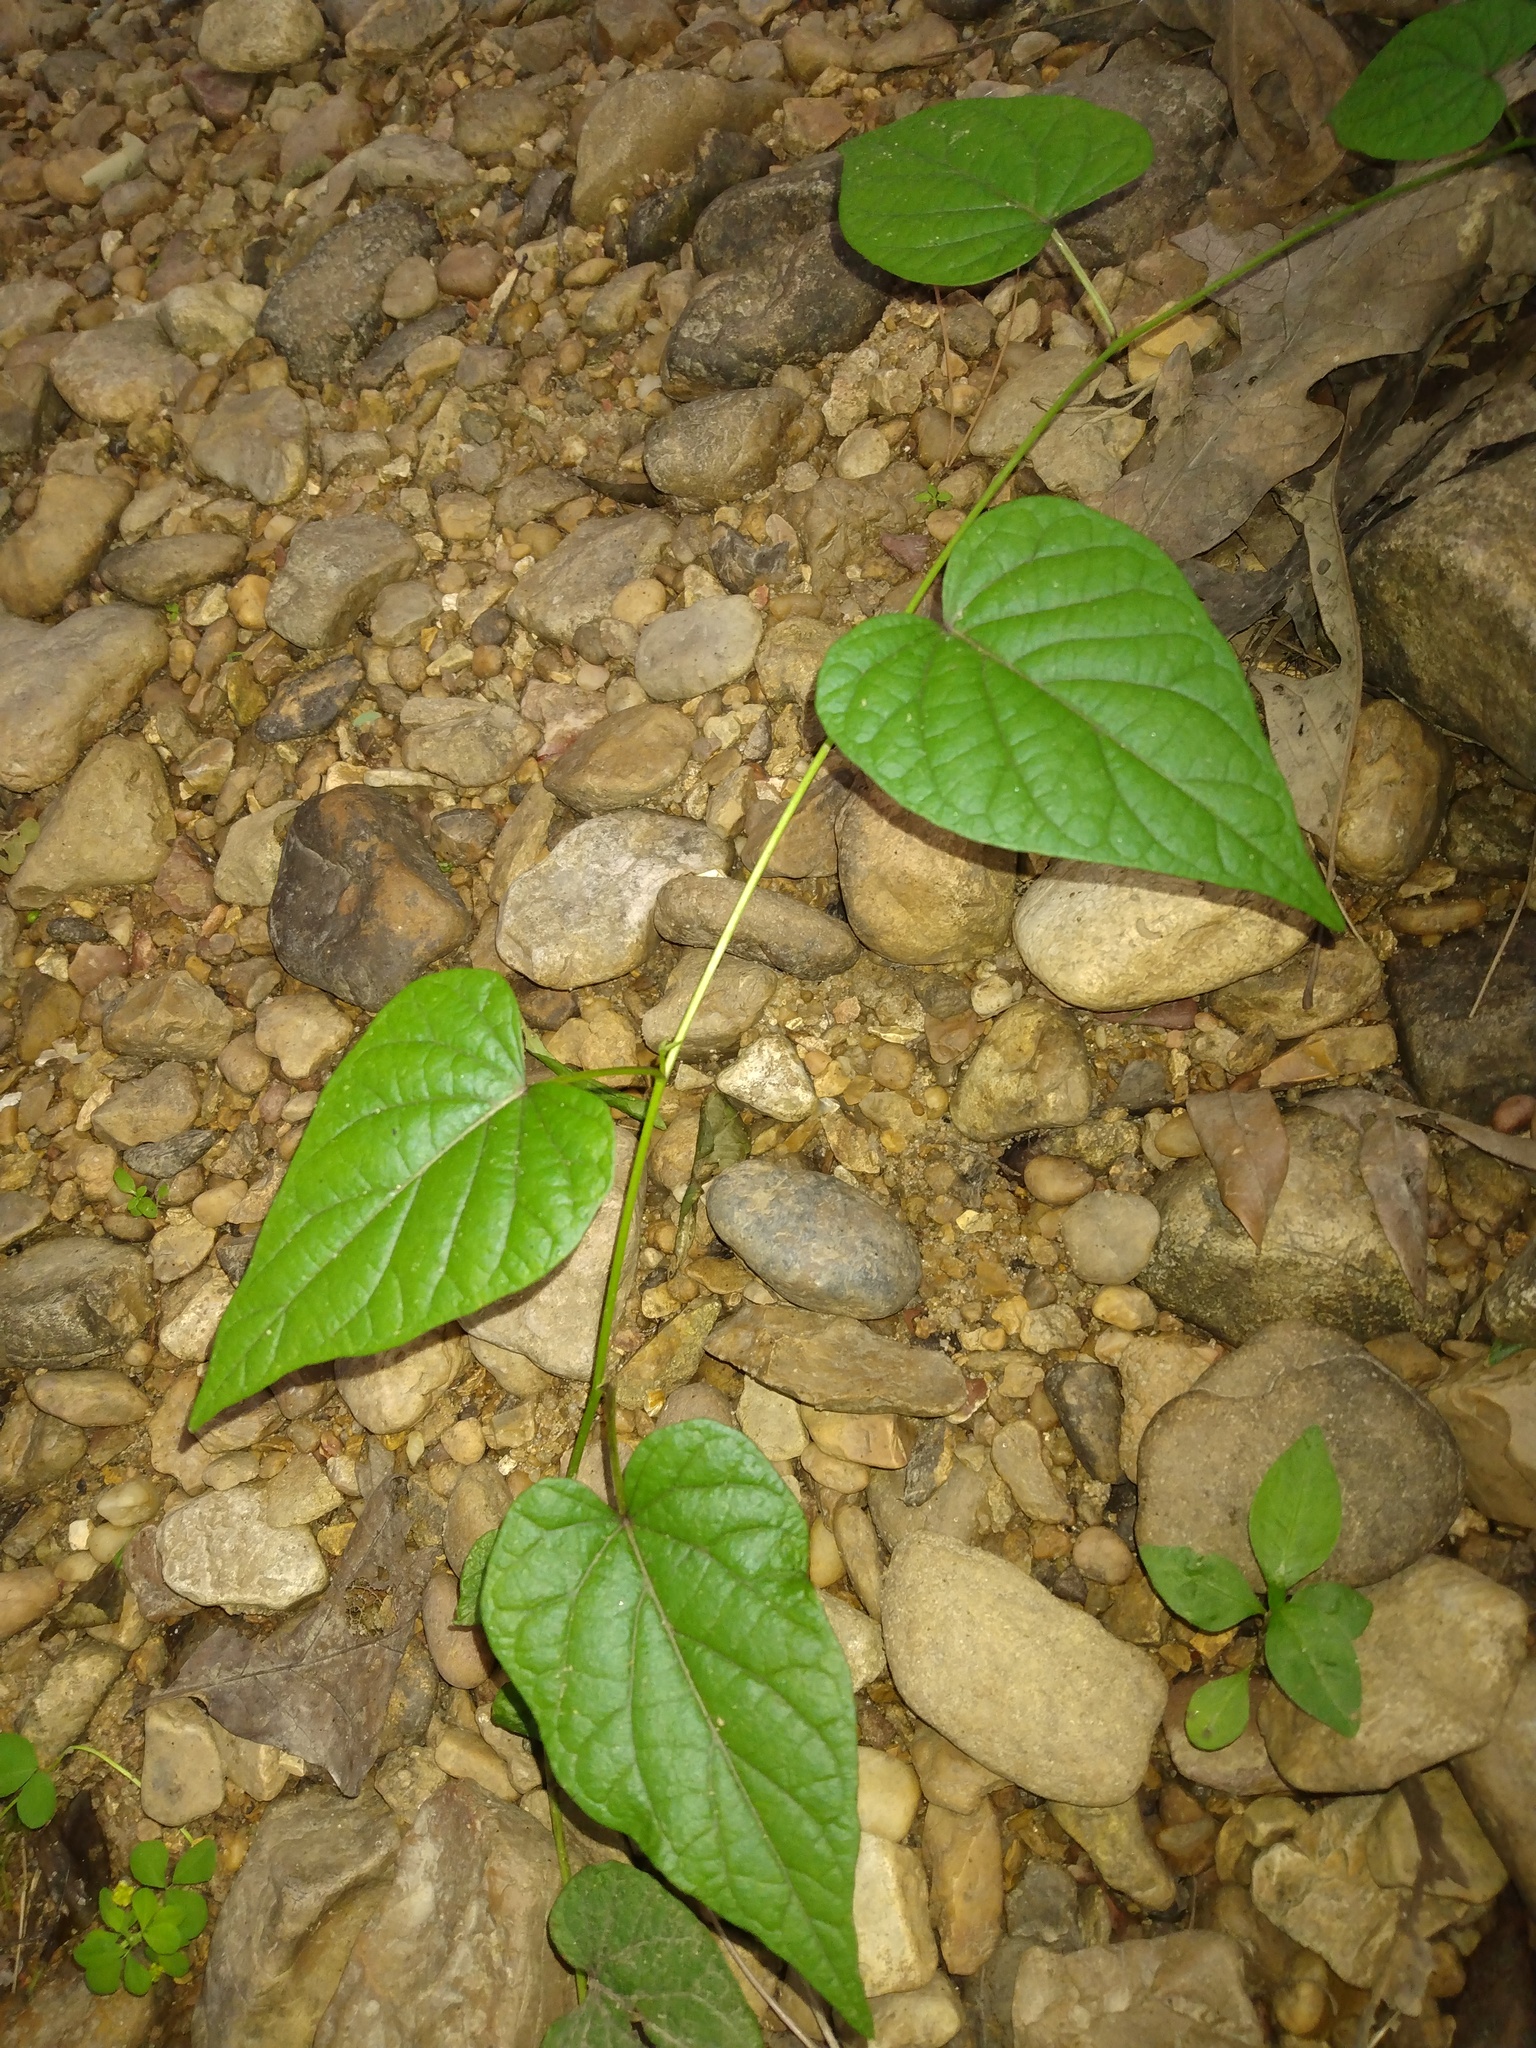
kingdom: Plantae
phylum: Tracheophyta
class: Magnoliopsida
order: Solanales
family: Convolvulaceae
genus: Ipomoea
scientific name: Ipomoea pandurata
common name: Man-of-the-earth
